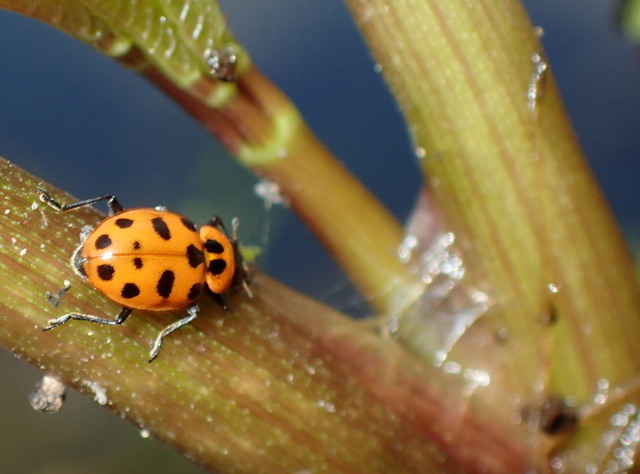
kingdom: Animalia
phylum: Arthropoda
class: Insecta
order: Coleoptera
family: Coccinellidae
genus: Coleomegilla
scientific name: Coleomegilla maculata
